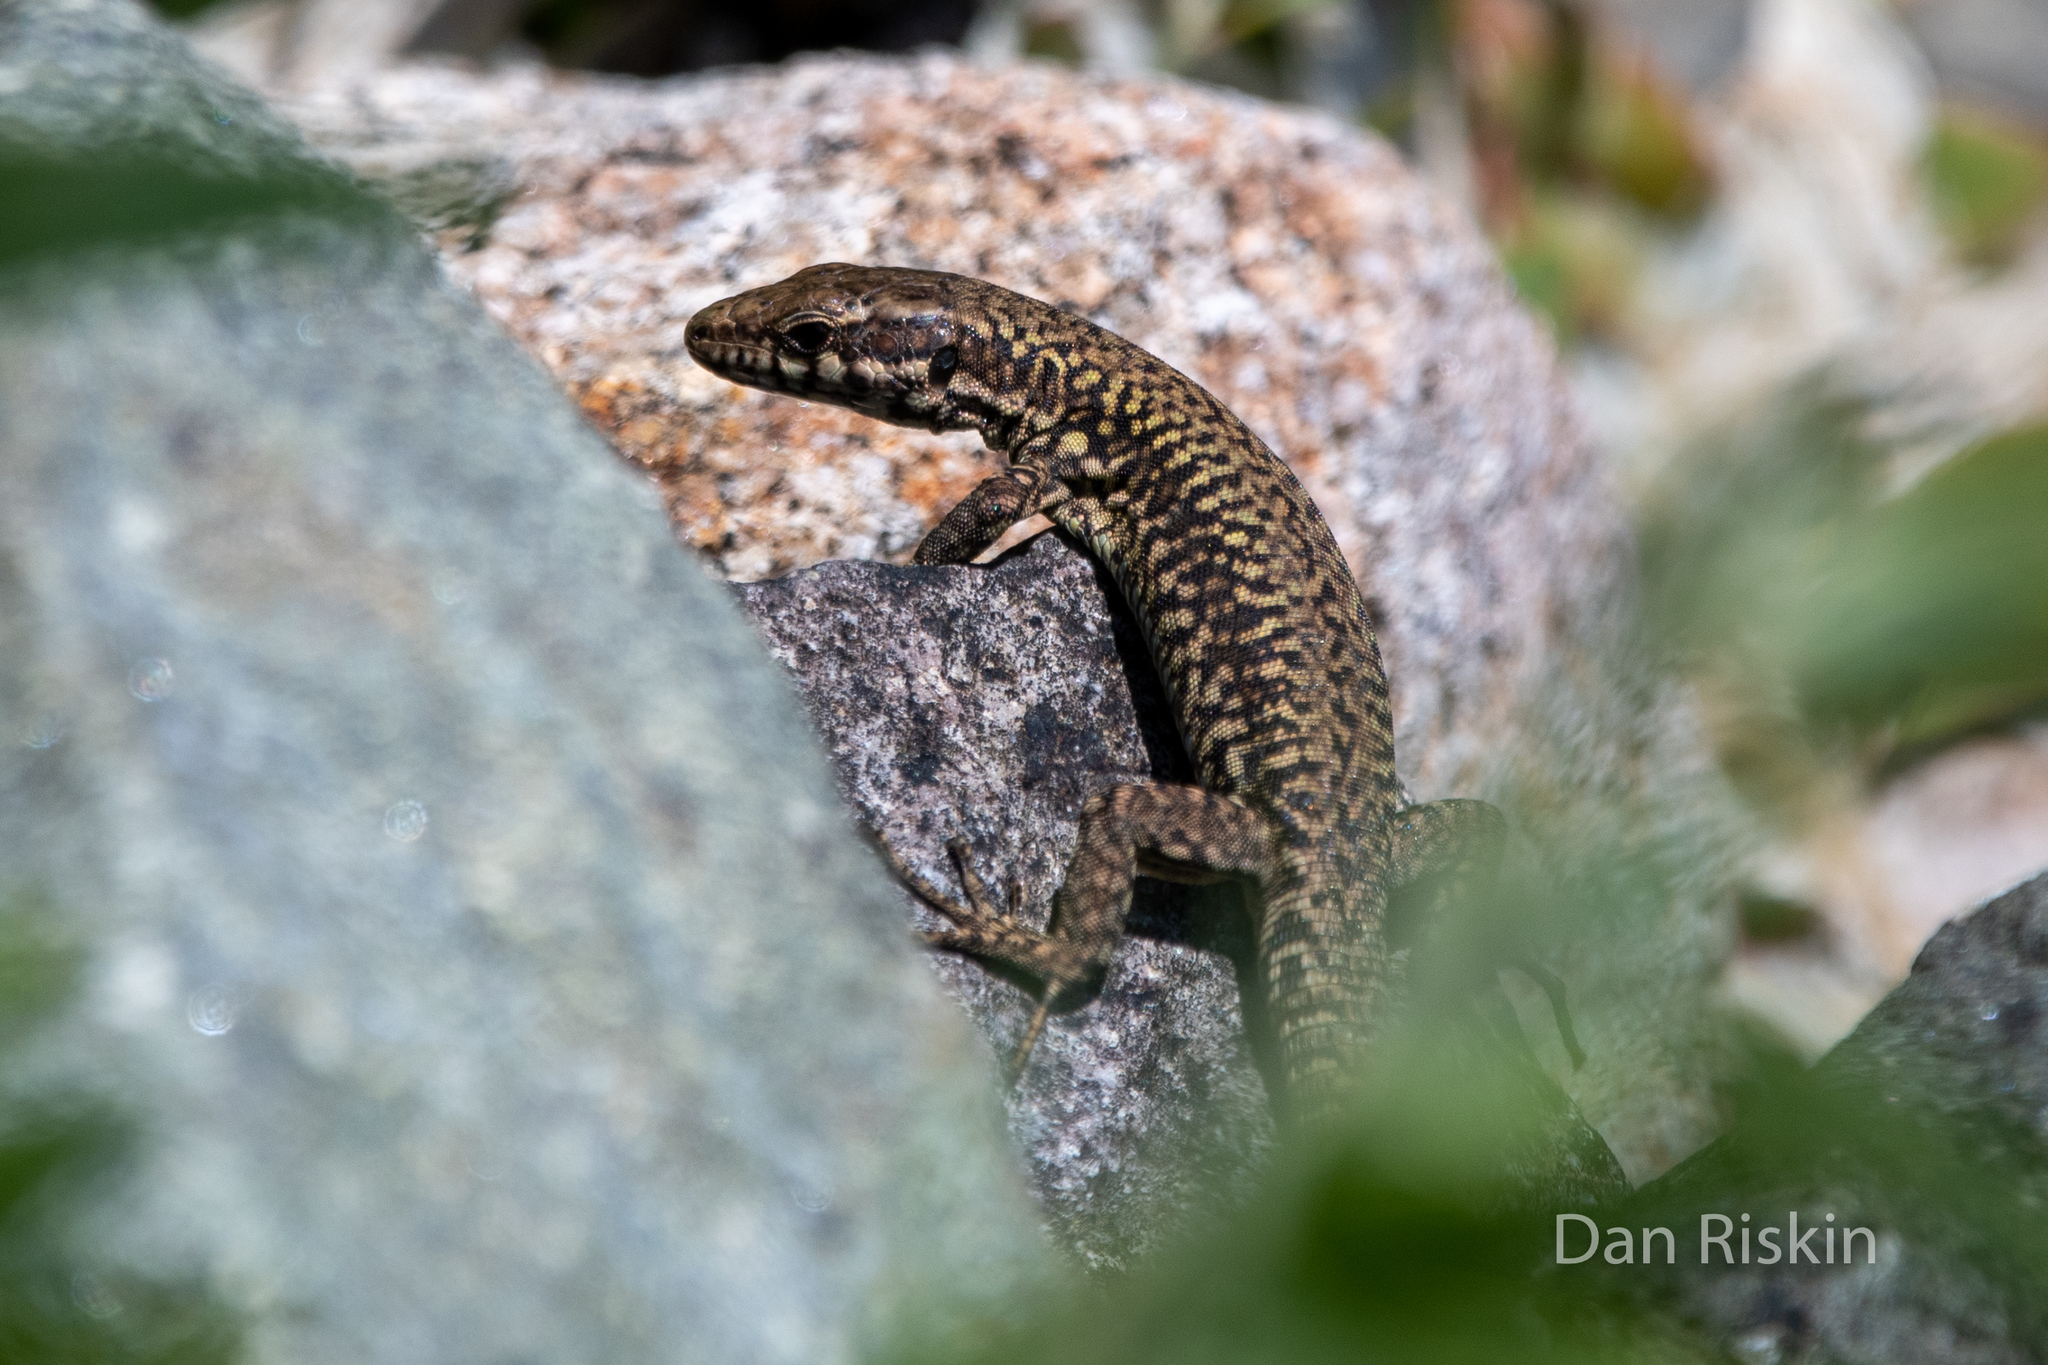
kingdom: Animalia
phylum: Chordata
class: Squamata
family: Lacertidae
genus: Podarcis
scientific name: Podarcis muralis
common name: Common wall lizard
